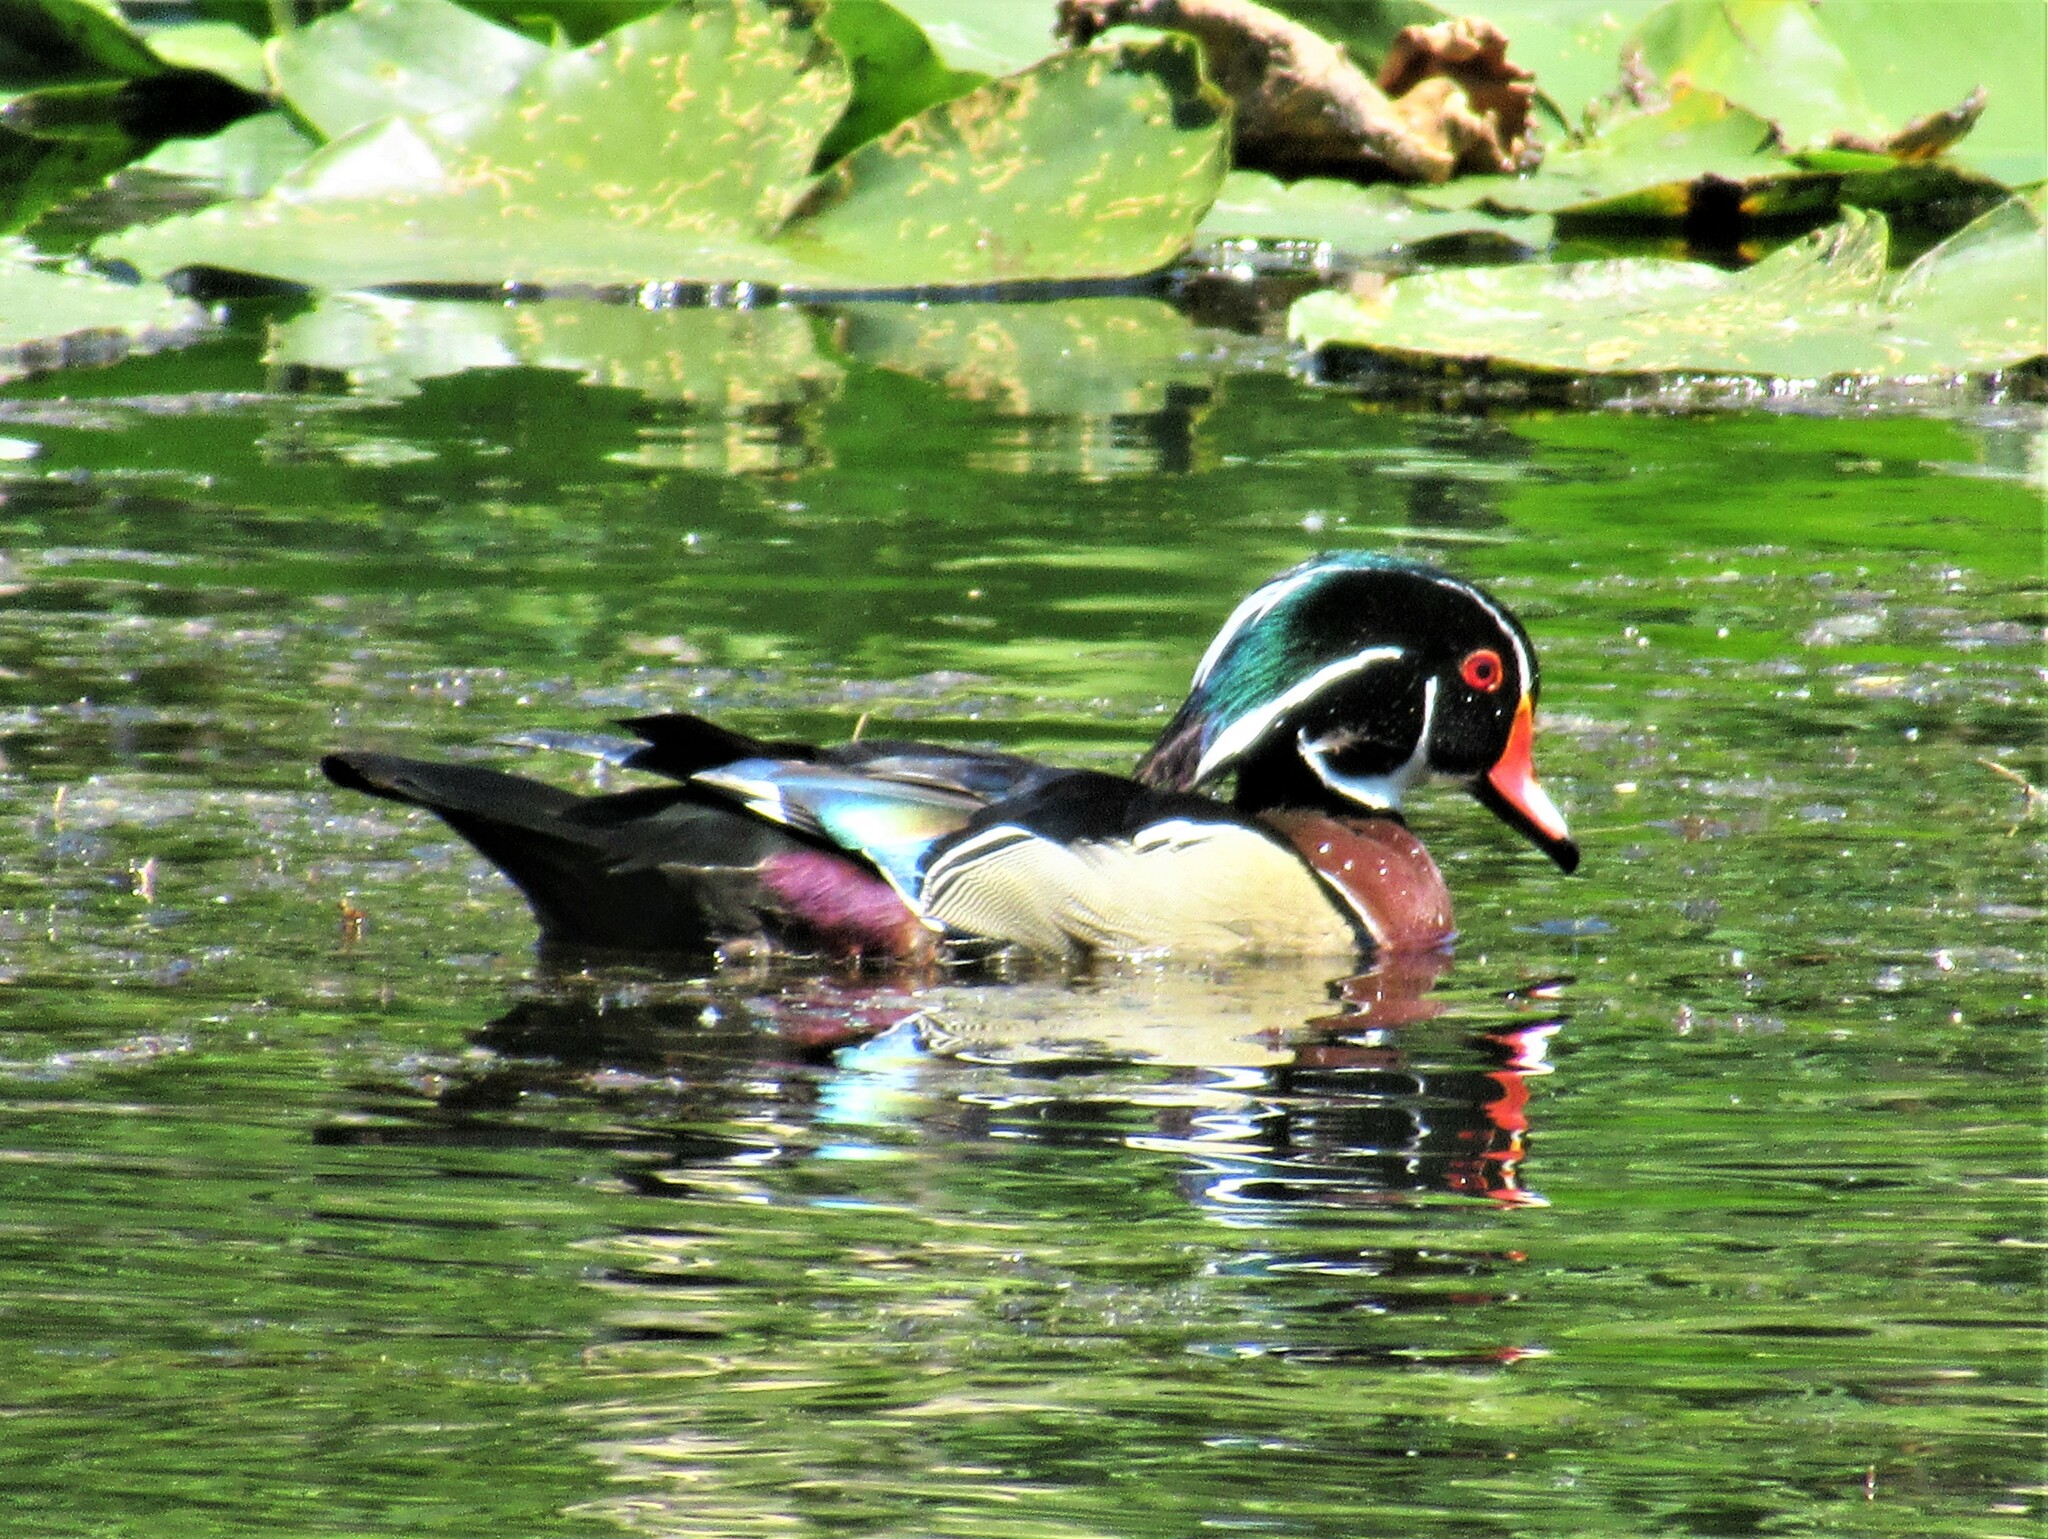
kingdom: Animalia
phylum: Chordata
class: Aves
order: Anseriformes
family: Anatidae
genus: Aix
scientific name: Aix sponsa
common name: Wood duck
